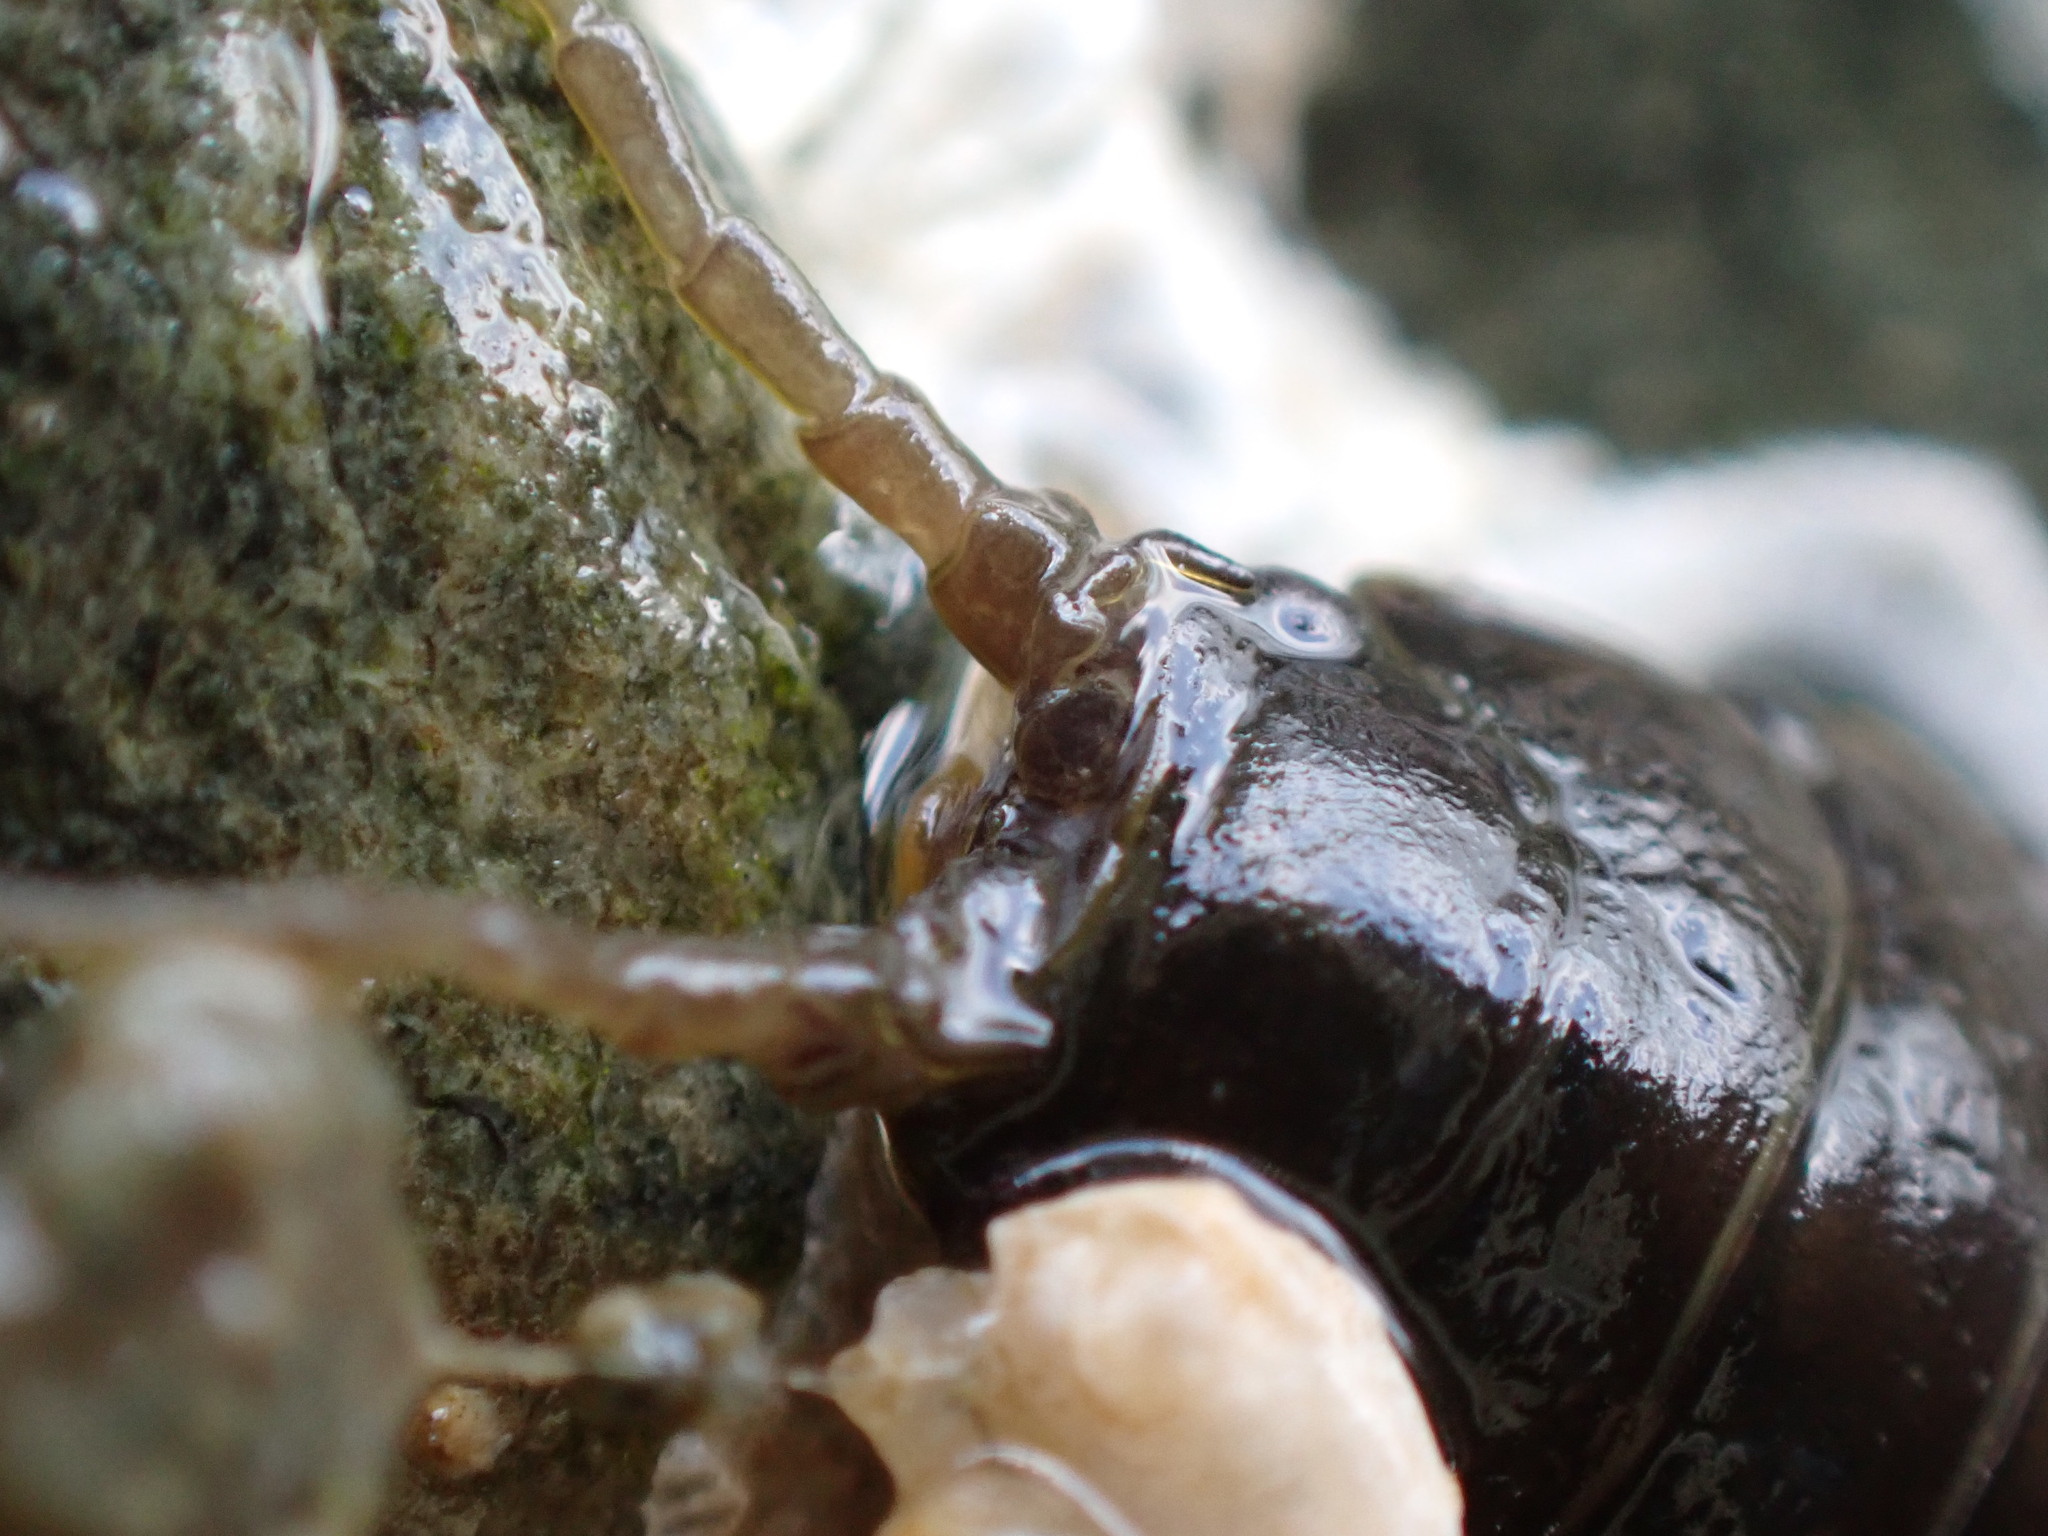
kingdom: Animalia
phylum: Arthropoda
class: Malacostraca
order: Isopoda
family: Idoteidae
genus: Pentidotea
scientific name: Pentidotea wosnesenskii
